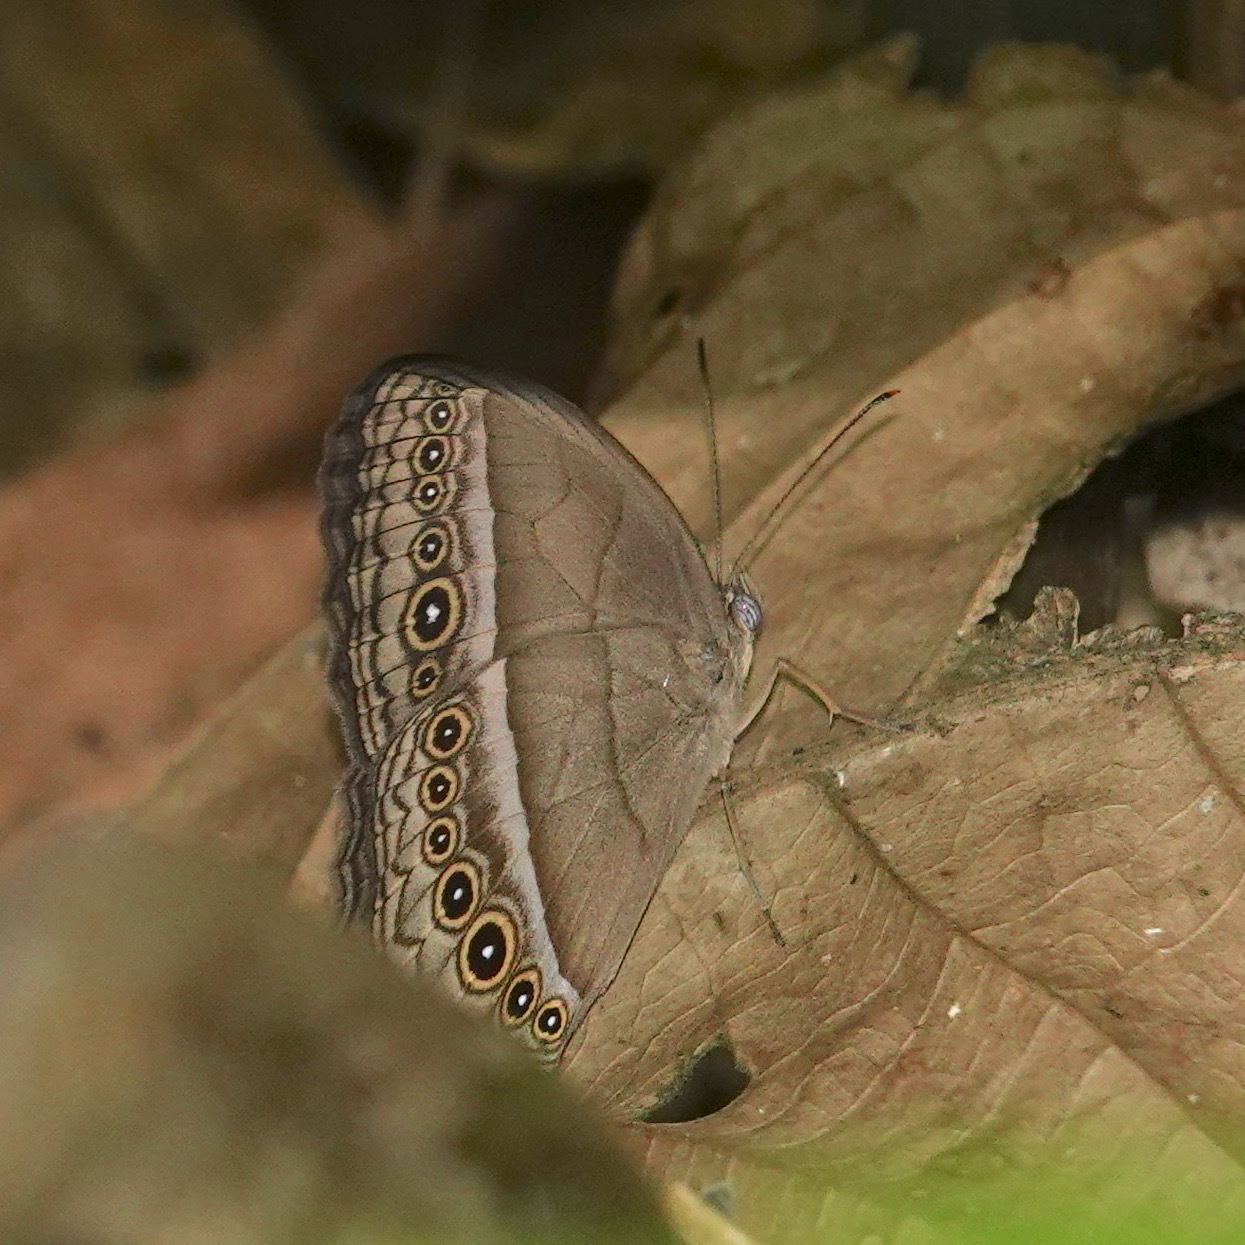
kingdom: Animalia
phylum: Arthropoda
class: Insecta
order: Lepidoptera
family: Nymphalidae
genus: Mycalesis
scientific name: Mycalesis orseis
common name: Purple bushbrown
